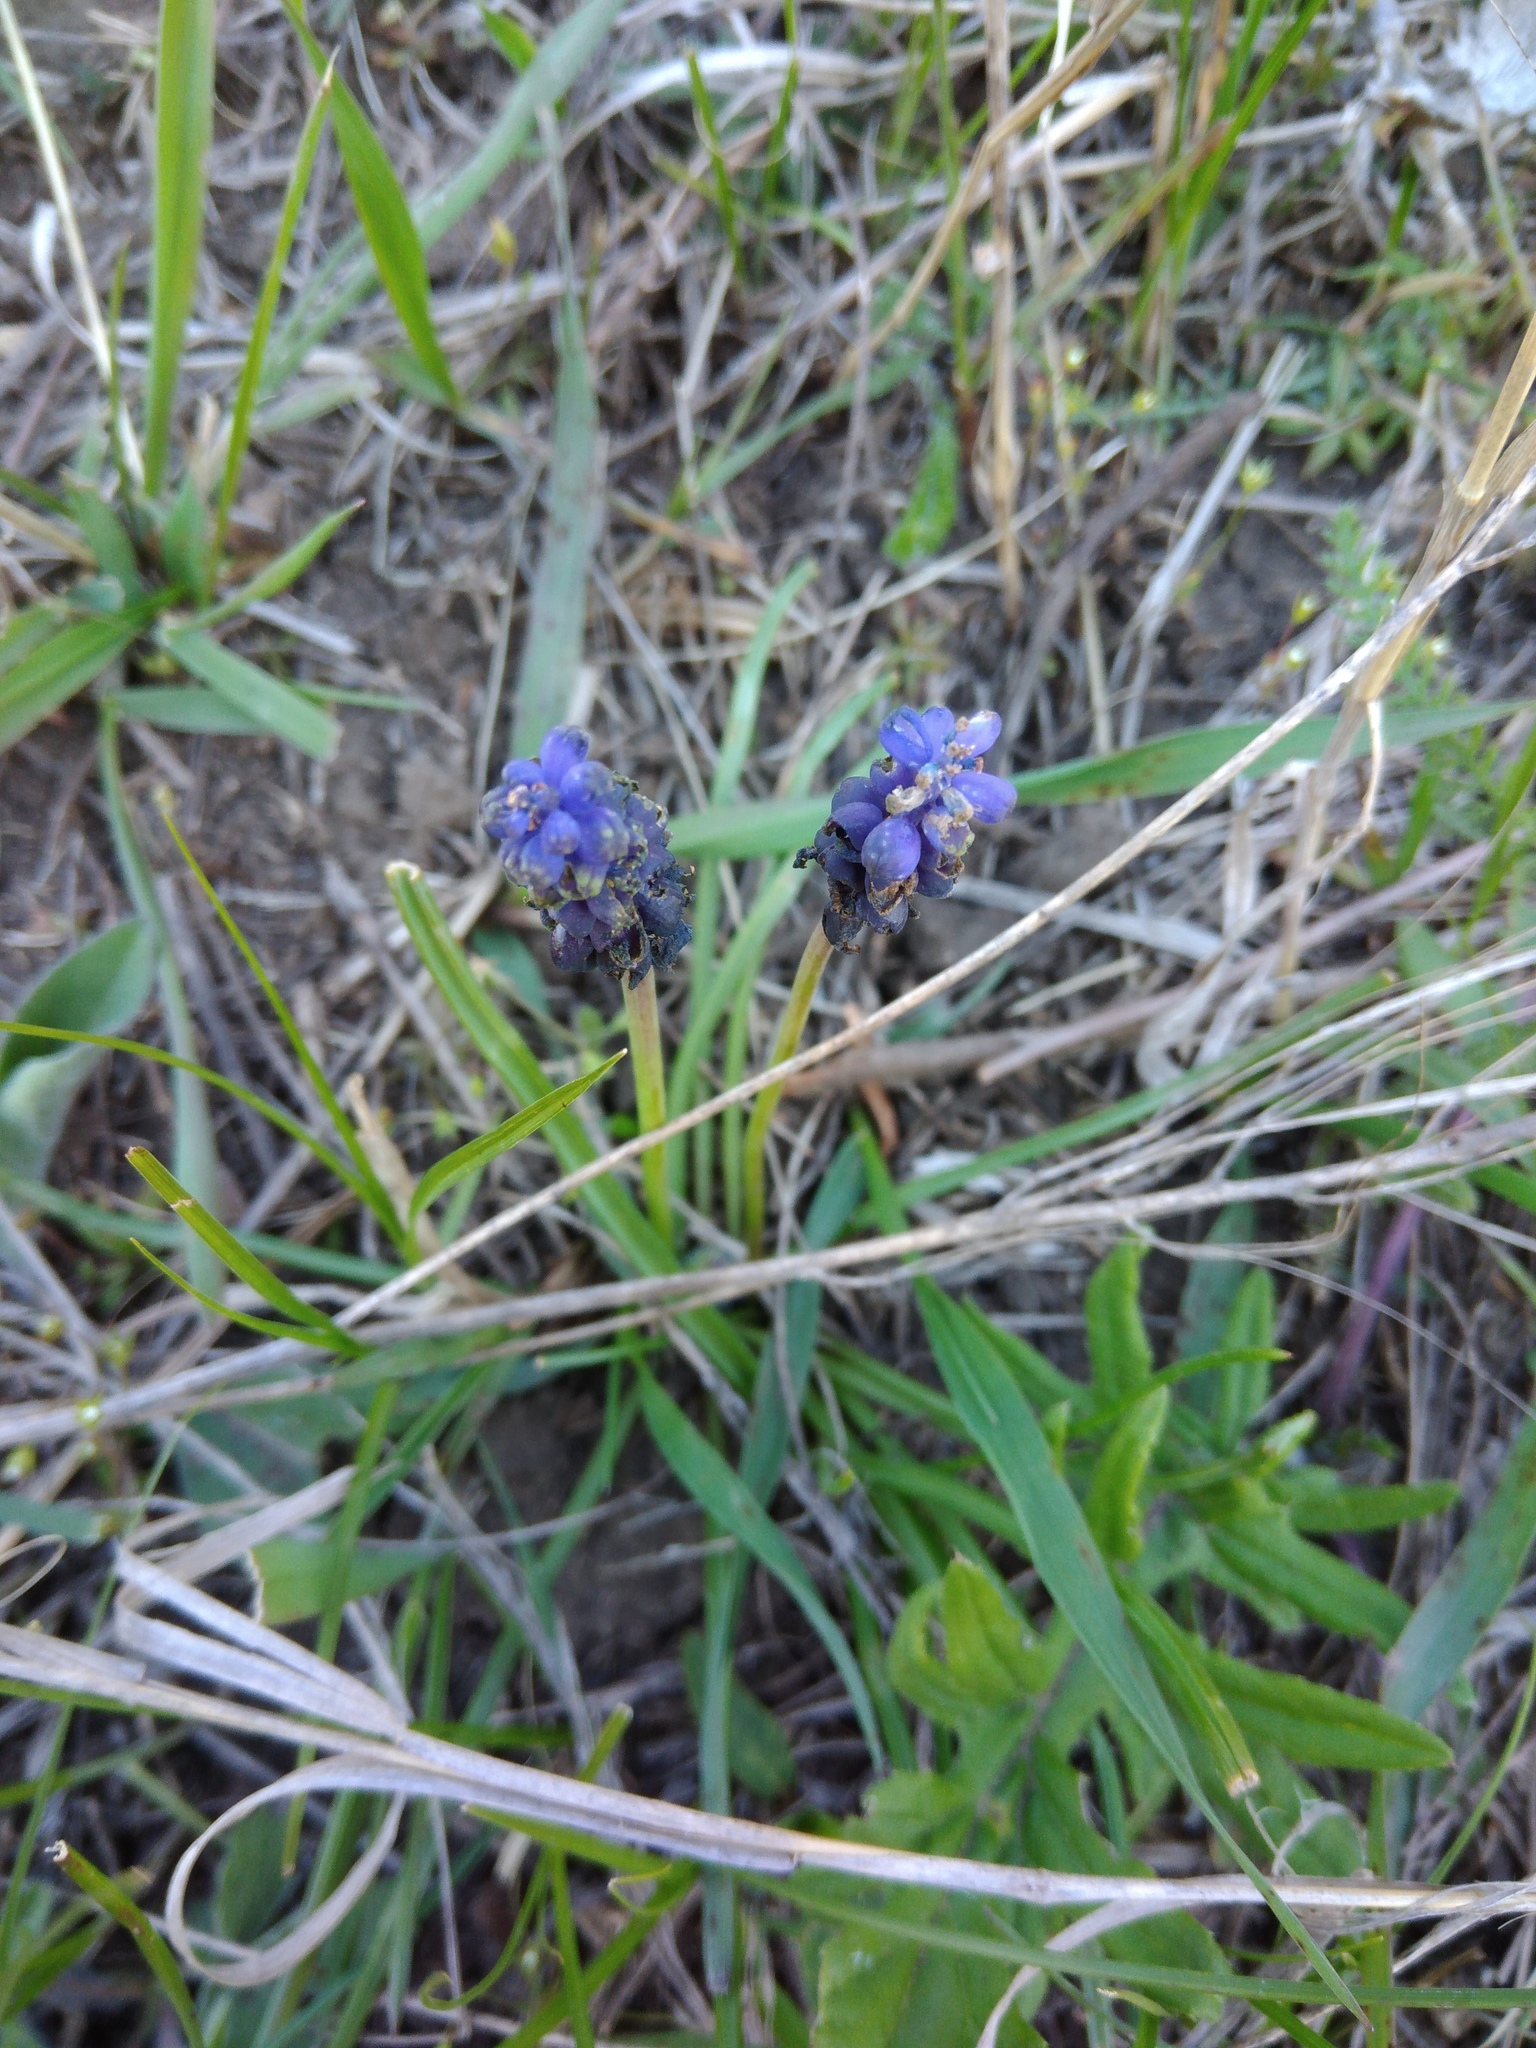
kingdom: Plantae
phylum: Tracheophyta
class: Liliopsida
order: Asparagales
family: Asparagaceae
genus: Muscari
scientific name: Muscari neglectum
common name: Grape-hyacinth
